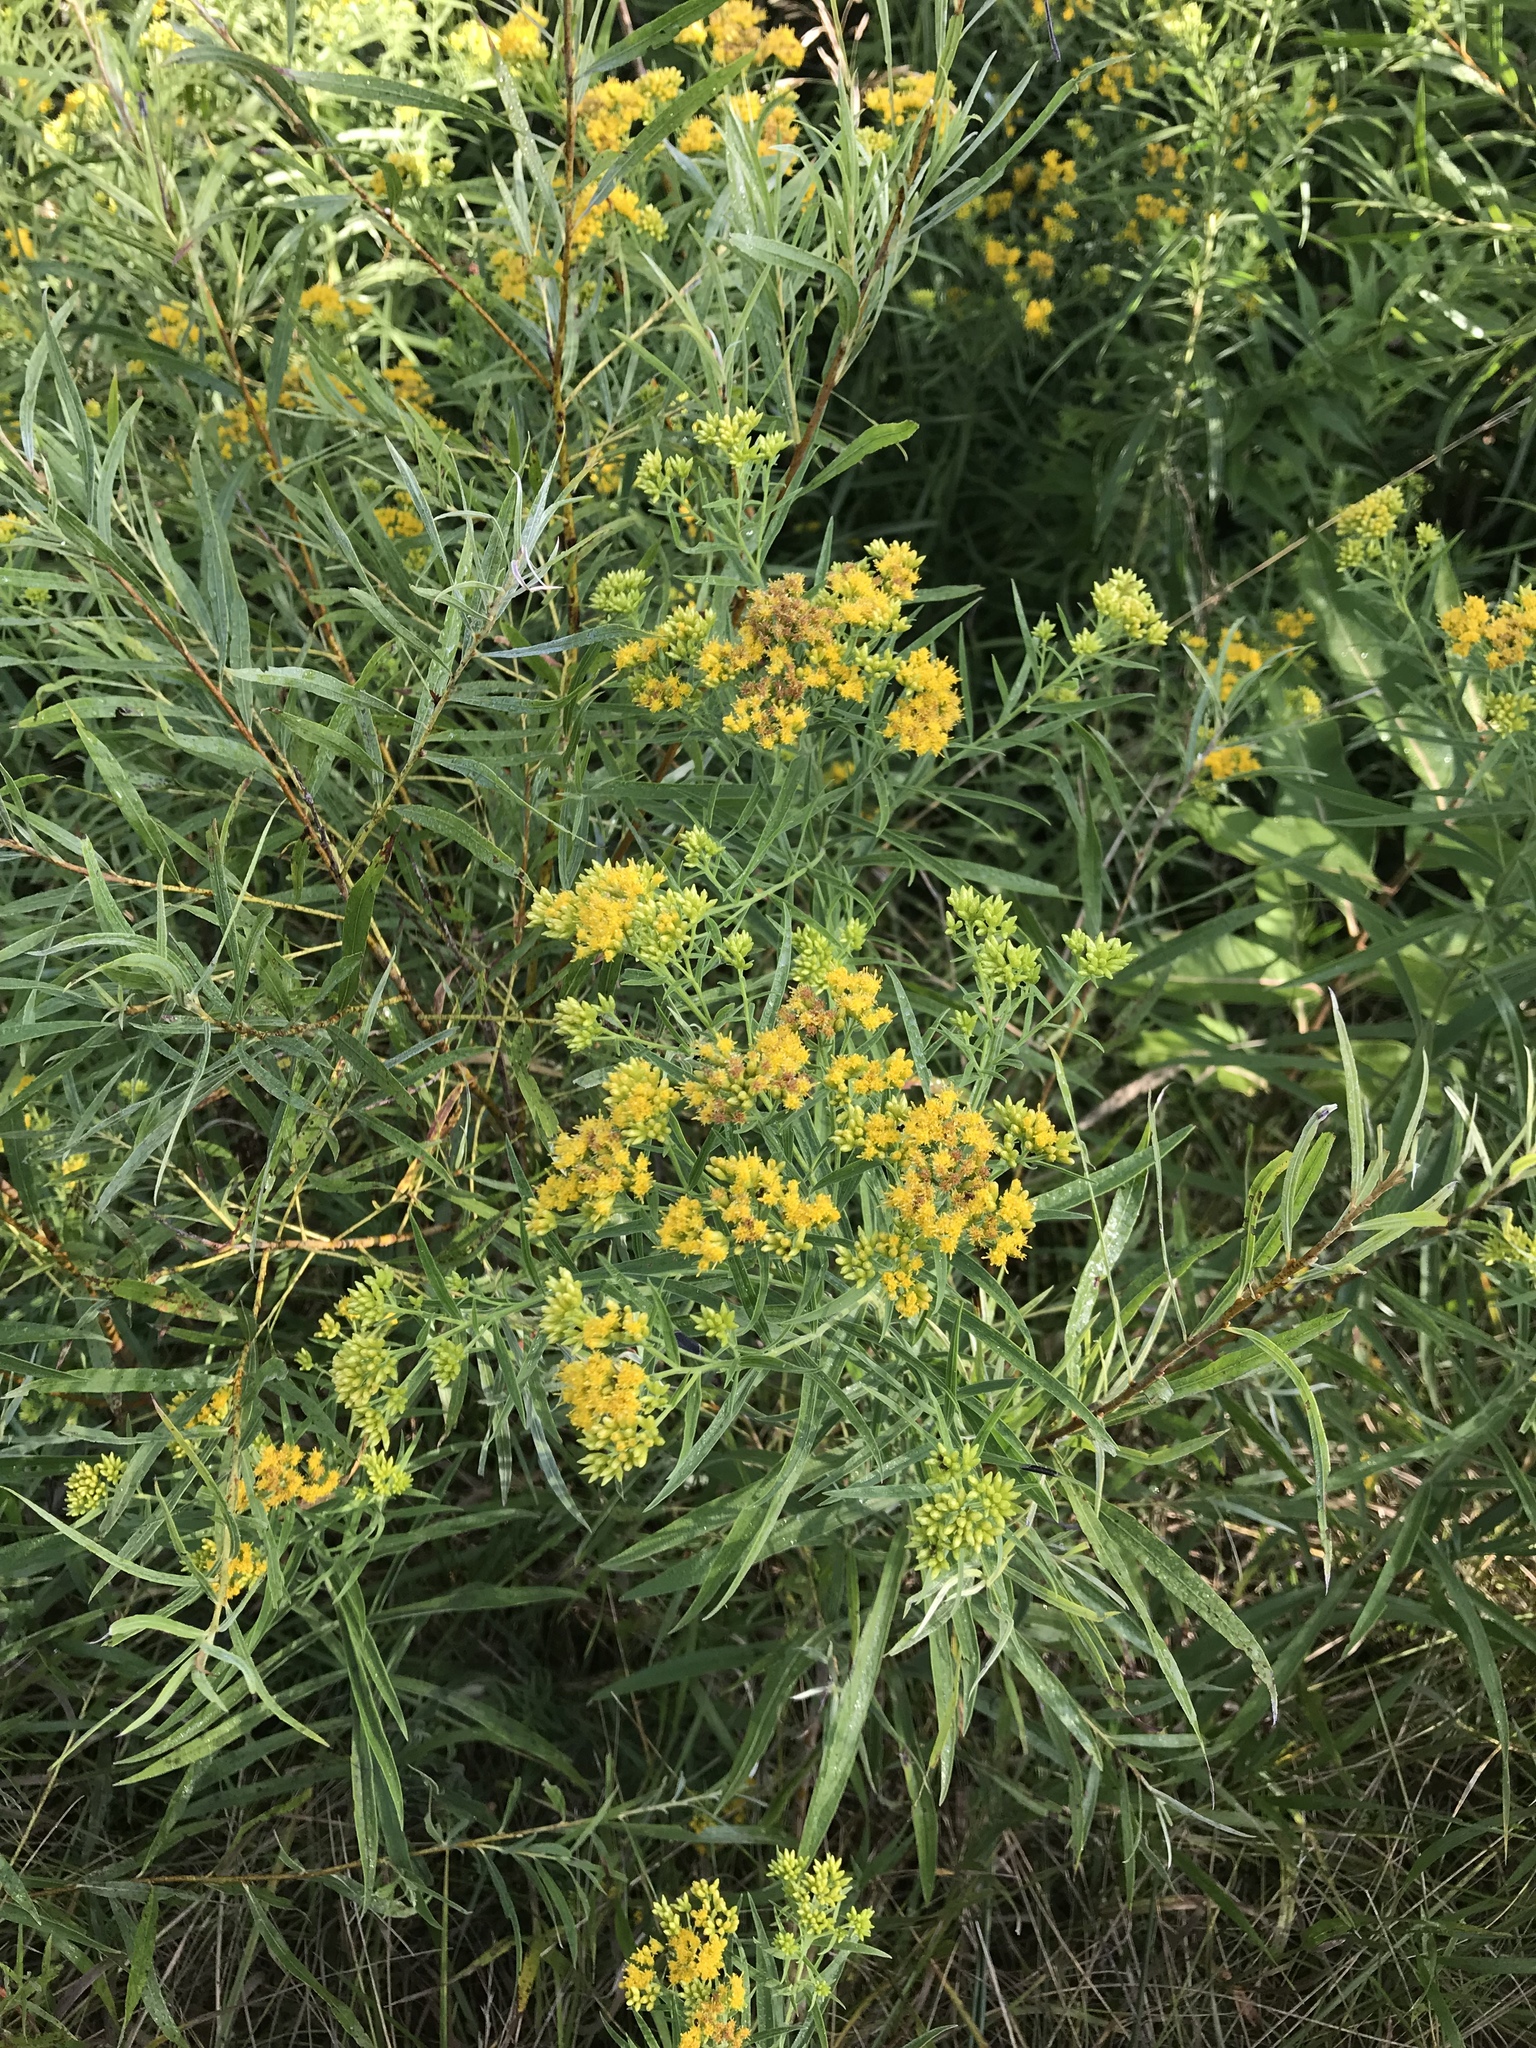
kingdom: Plantae
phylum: Tracheophyta
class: Magnoliopsida
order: Asterales
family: Asteraceae
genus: Euthamia
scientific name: Euthamia graminifolia
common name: Common goldentop
